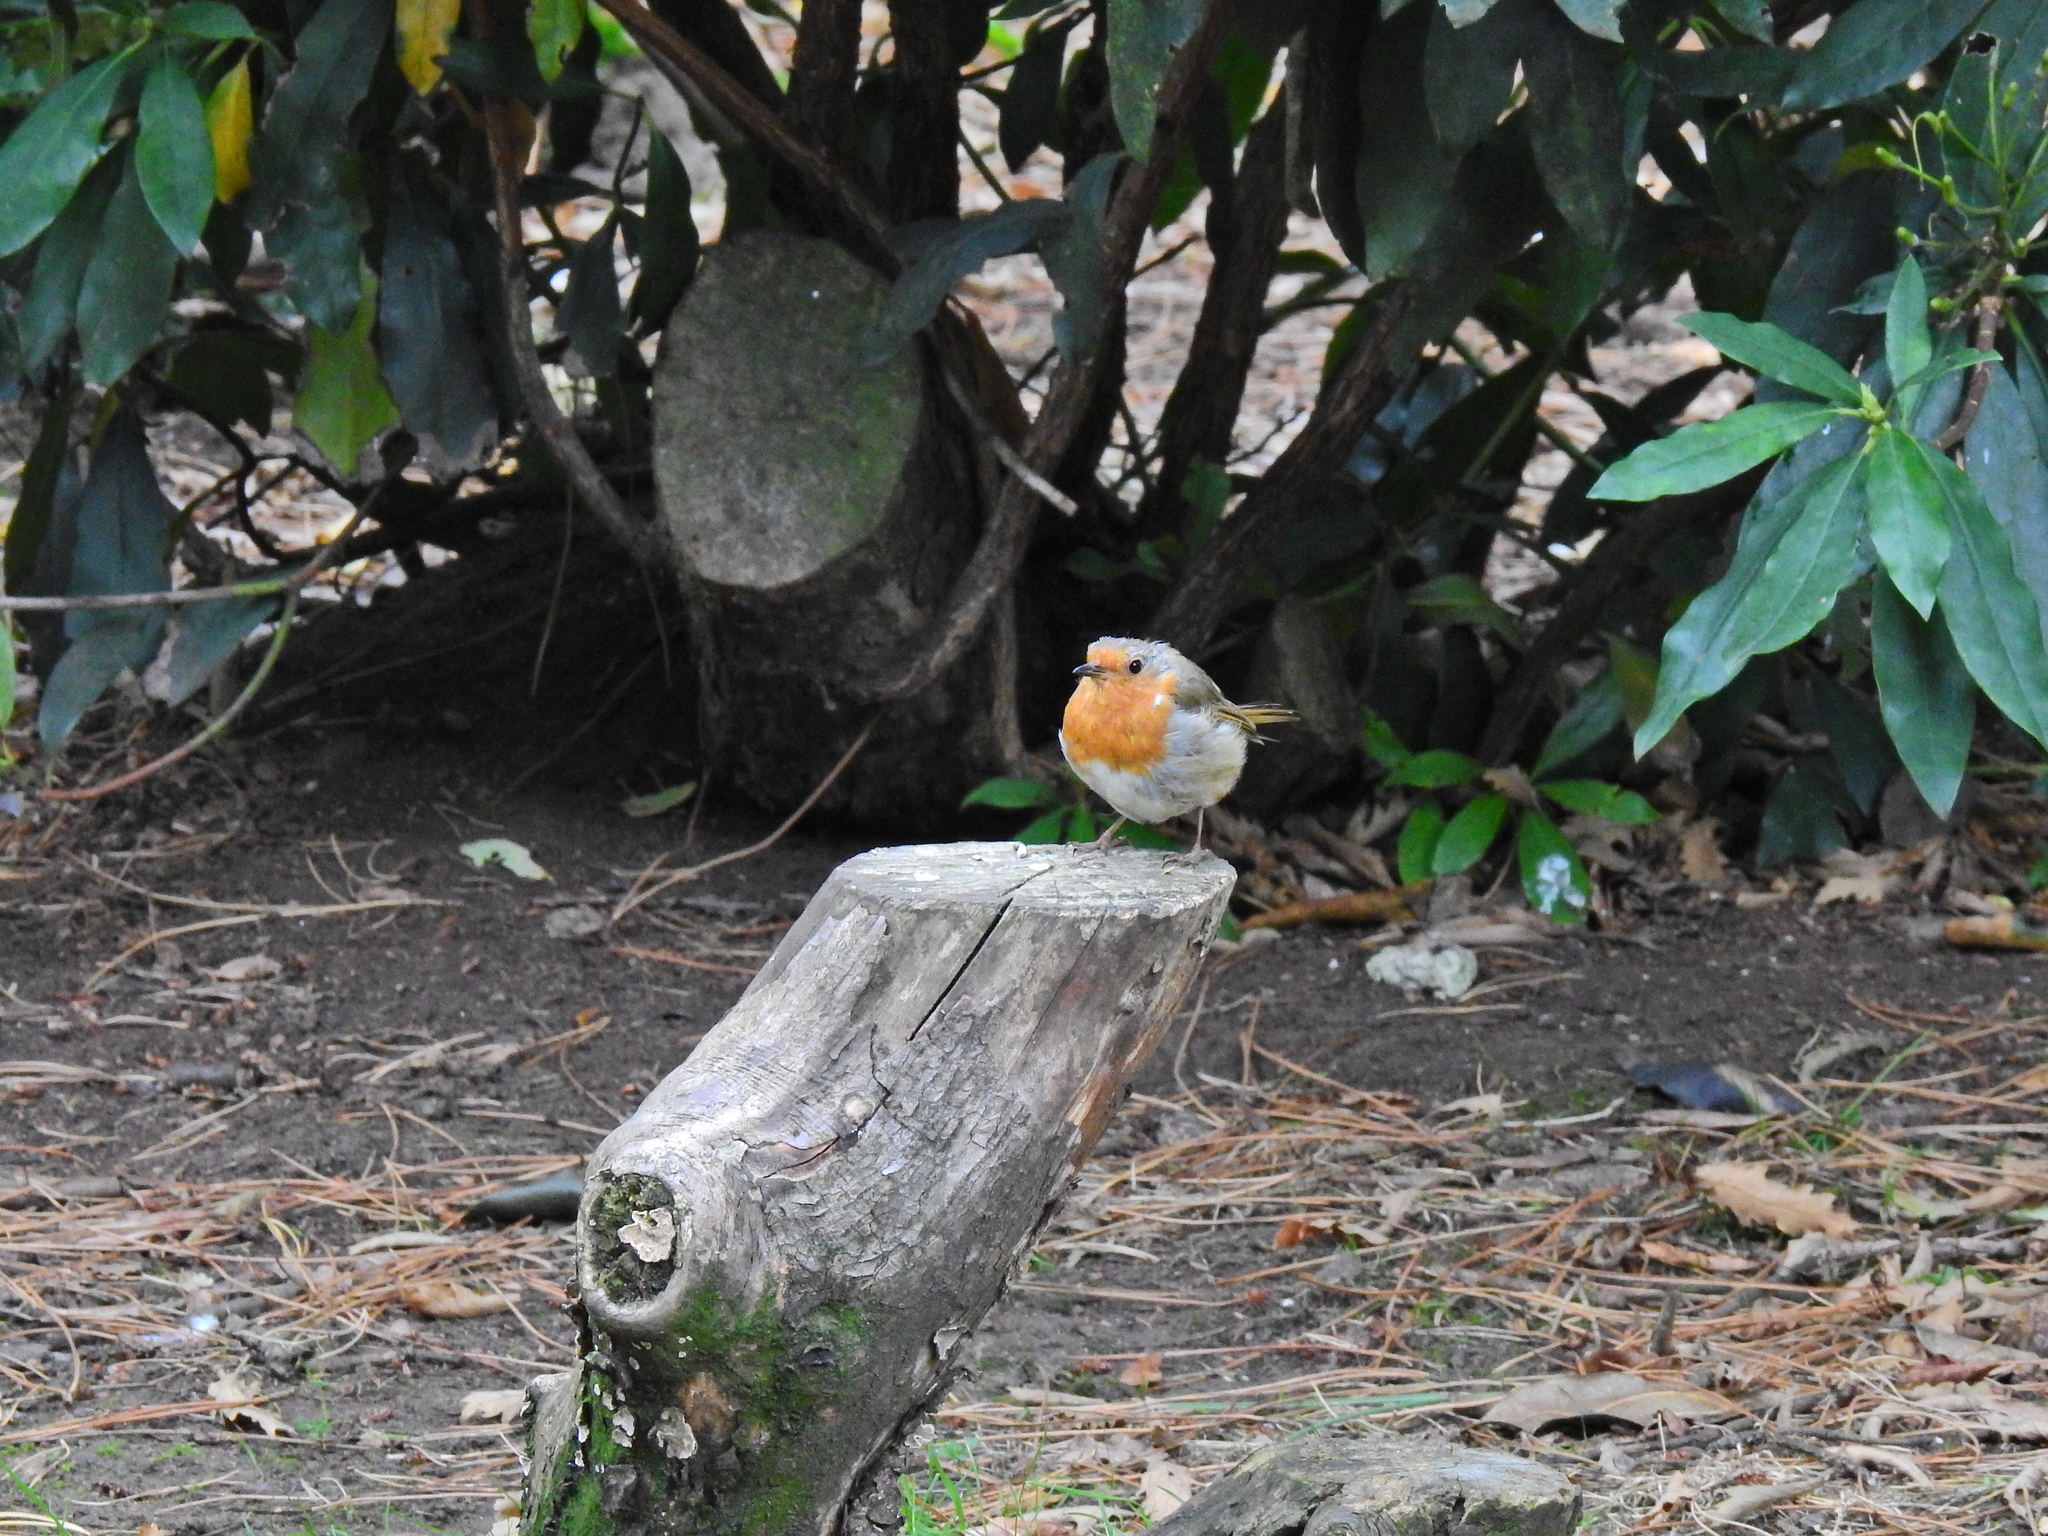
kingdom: Animalia
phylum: Chordata
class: Aves
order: Passeriformes
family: Muscicapidae
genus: Erithacus
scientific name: Erithacus rubecula
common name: European robin
